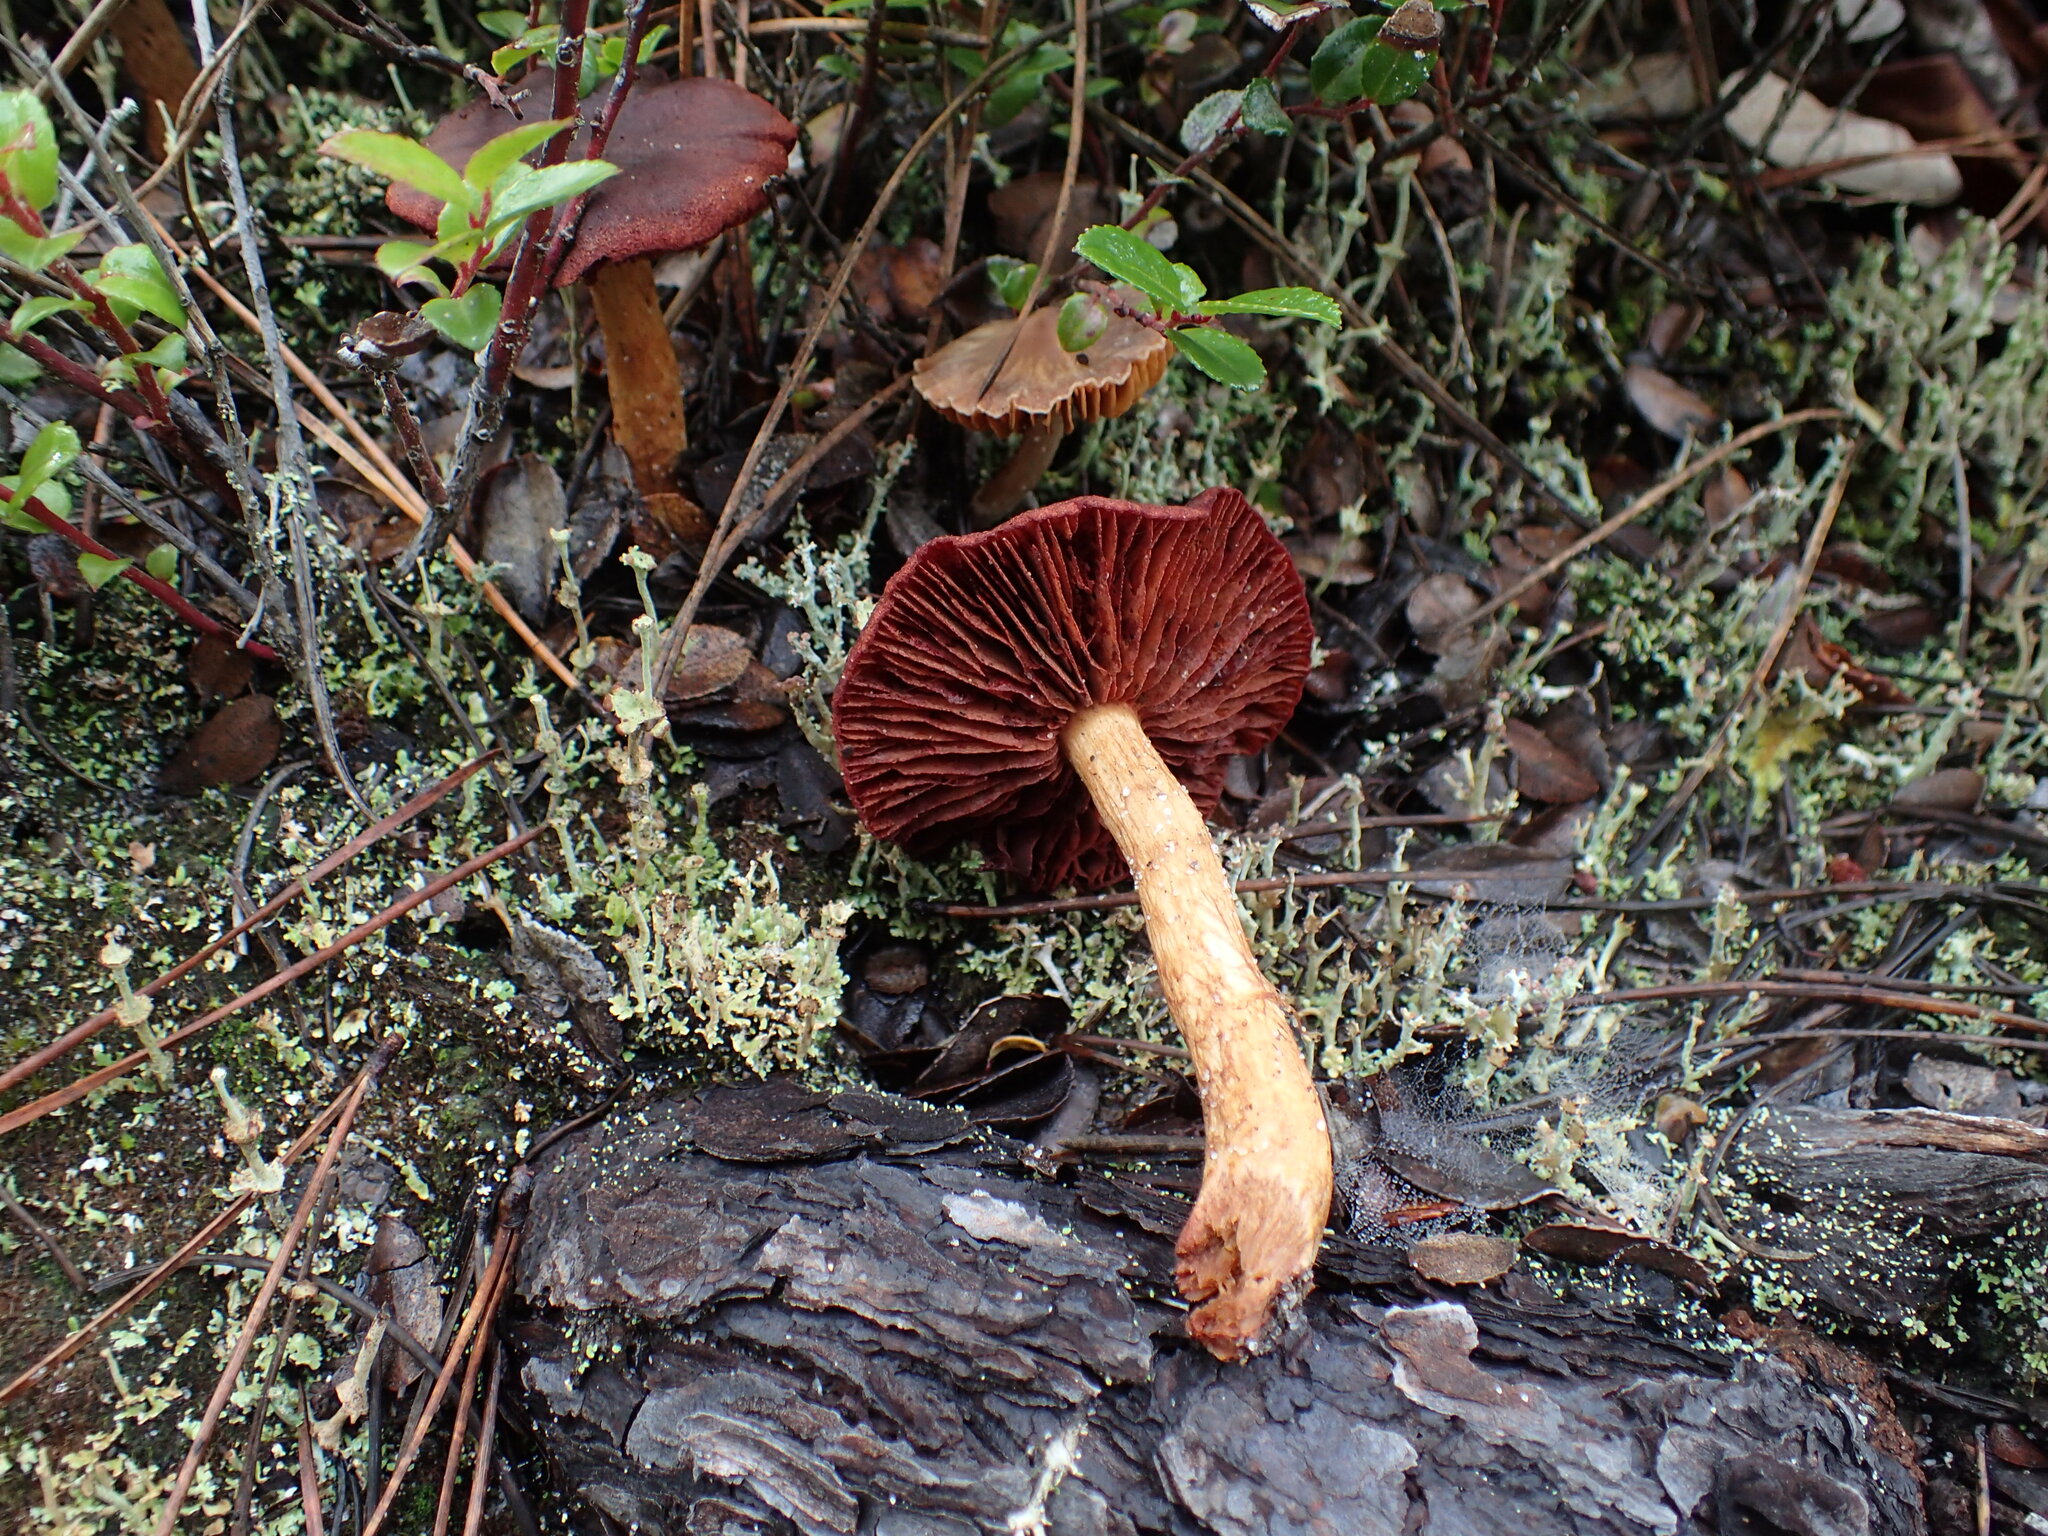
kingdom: Fungi
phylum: Basidiomycota
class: Agaricomycetes
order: Agaricales
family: Cortinariaceae
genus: Cortinarius
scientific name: Cortinarius smithii
